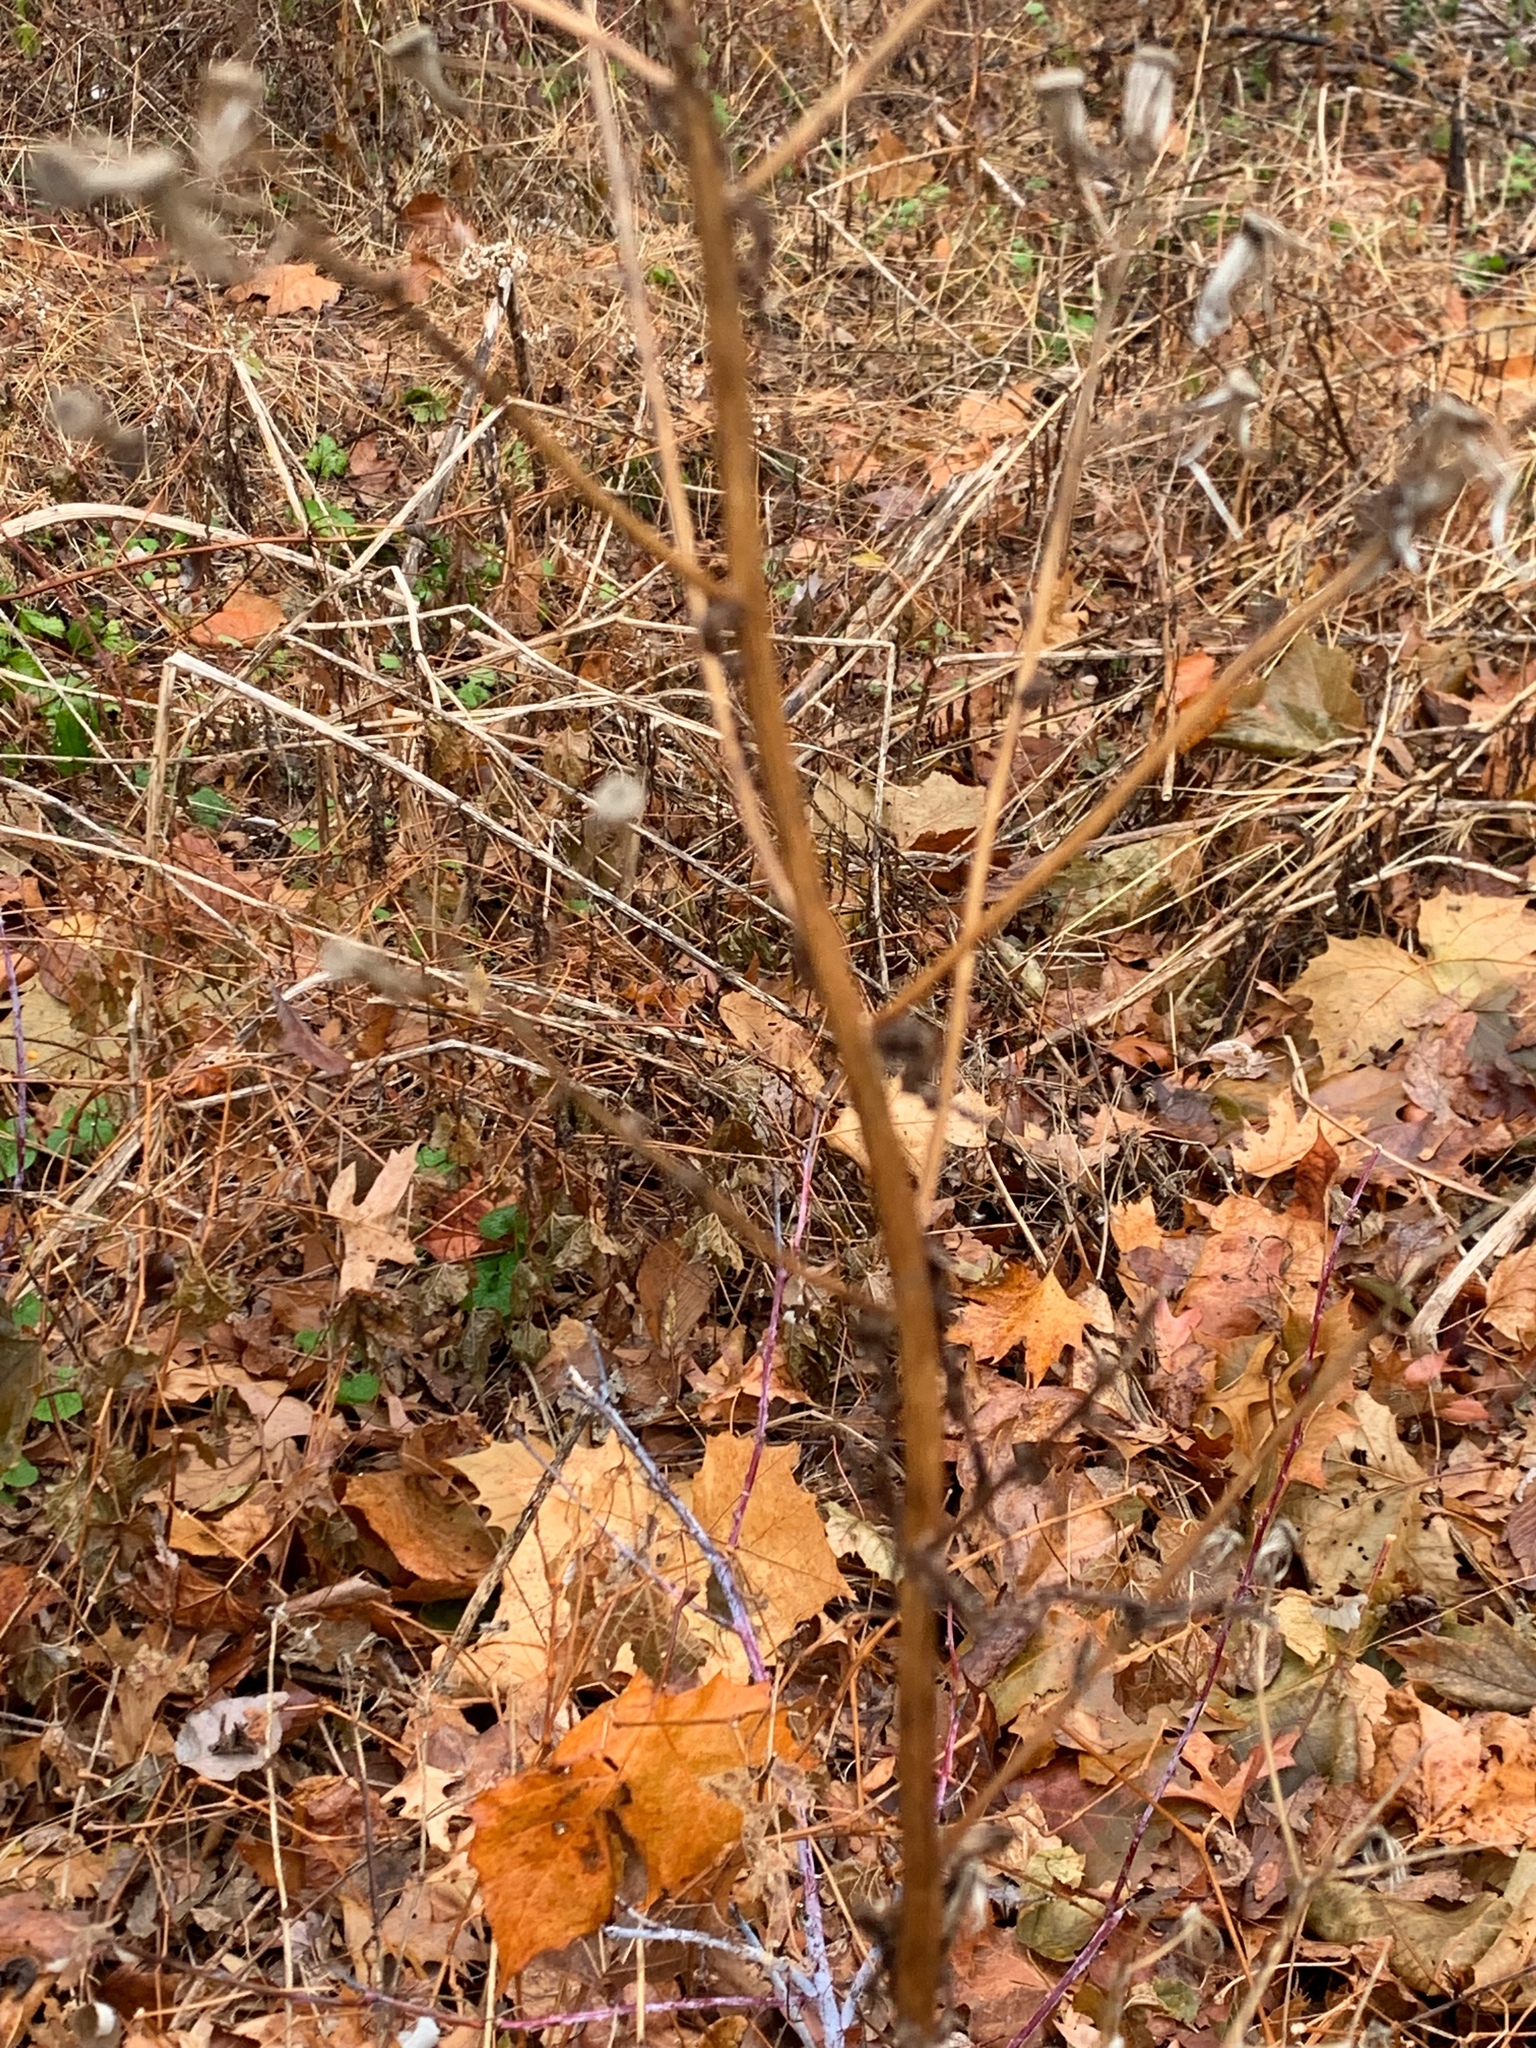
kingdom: Plantae
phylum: Tracheophyta
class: Magnoliopsida
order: Asterales
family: Asteraceae
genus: Erechtites
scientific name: Erechtites hieraciifolius
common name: American burnweed
